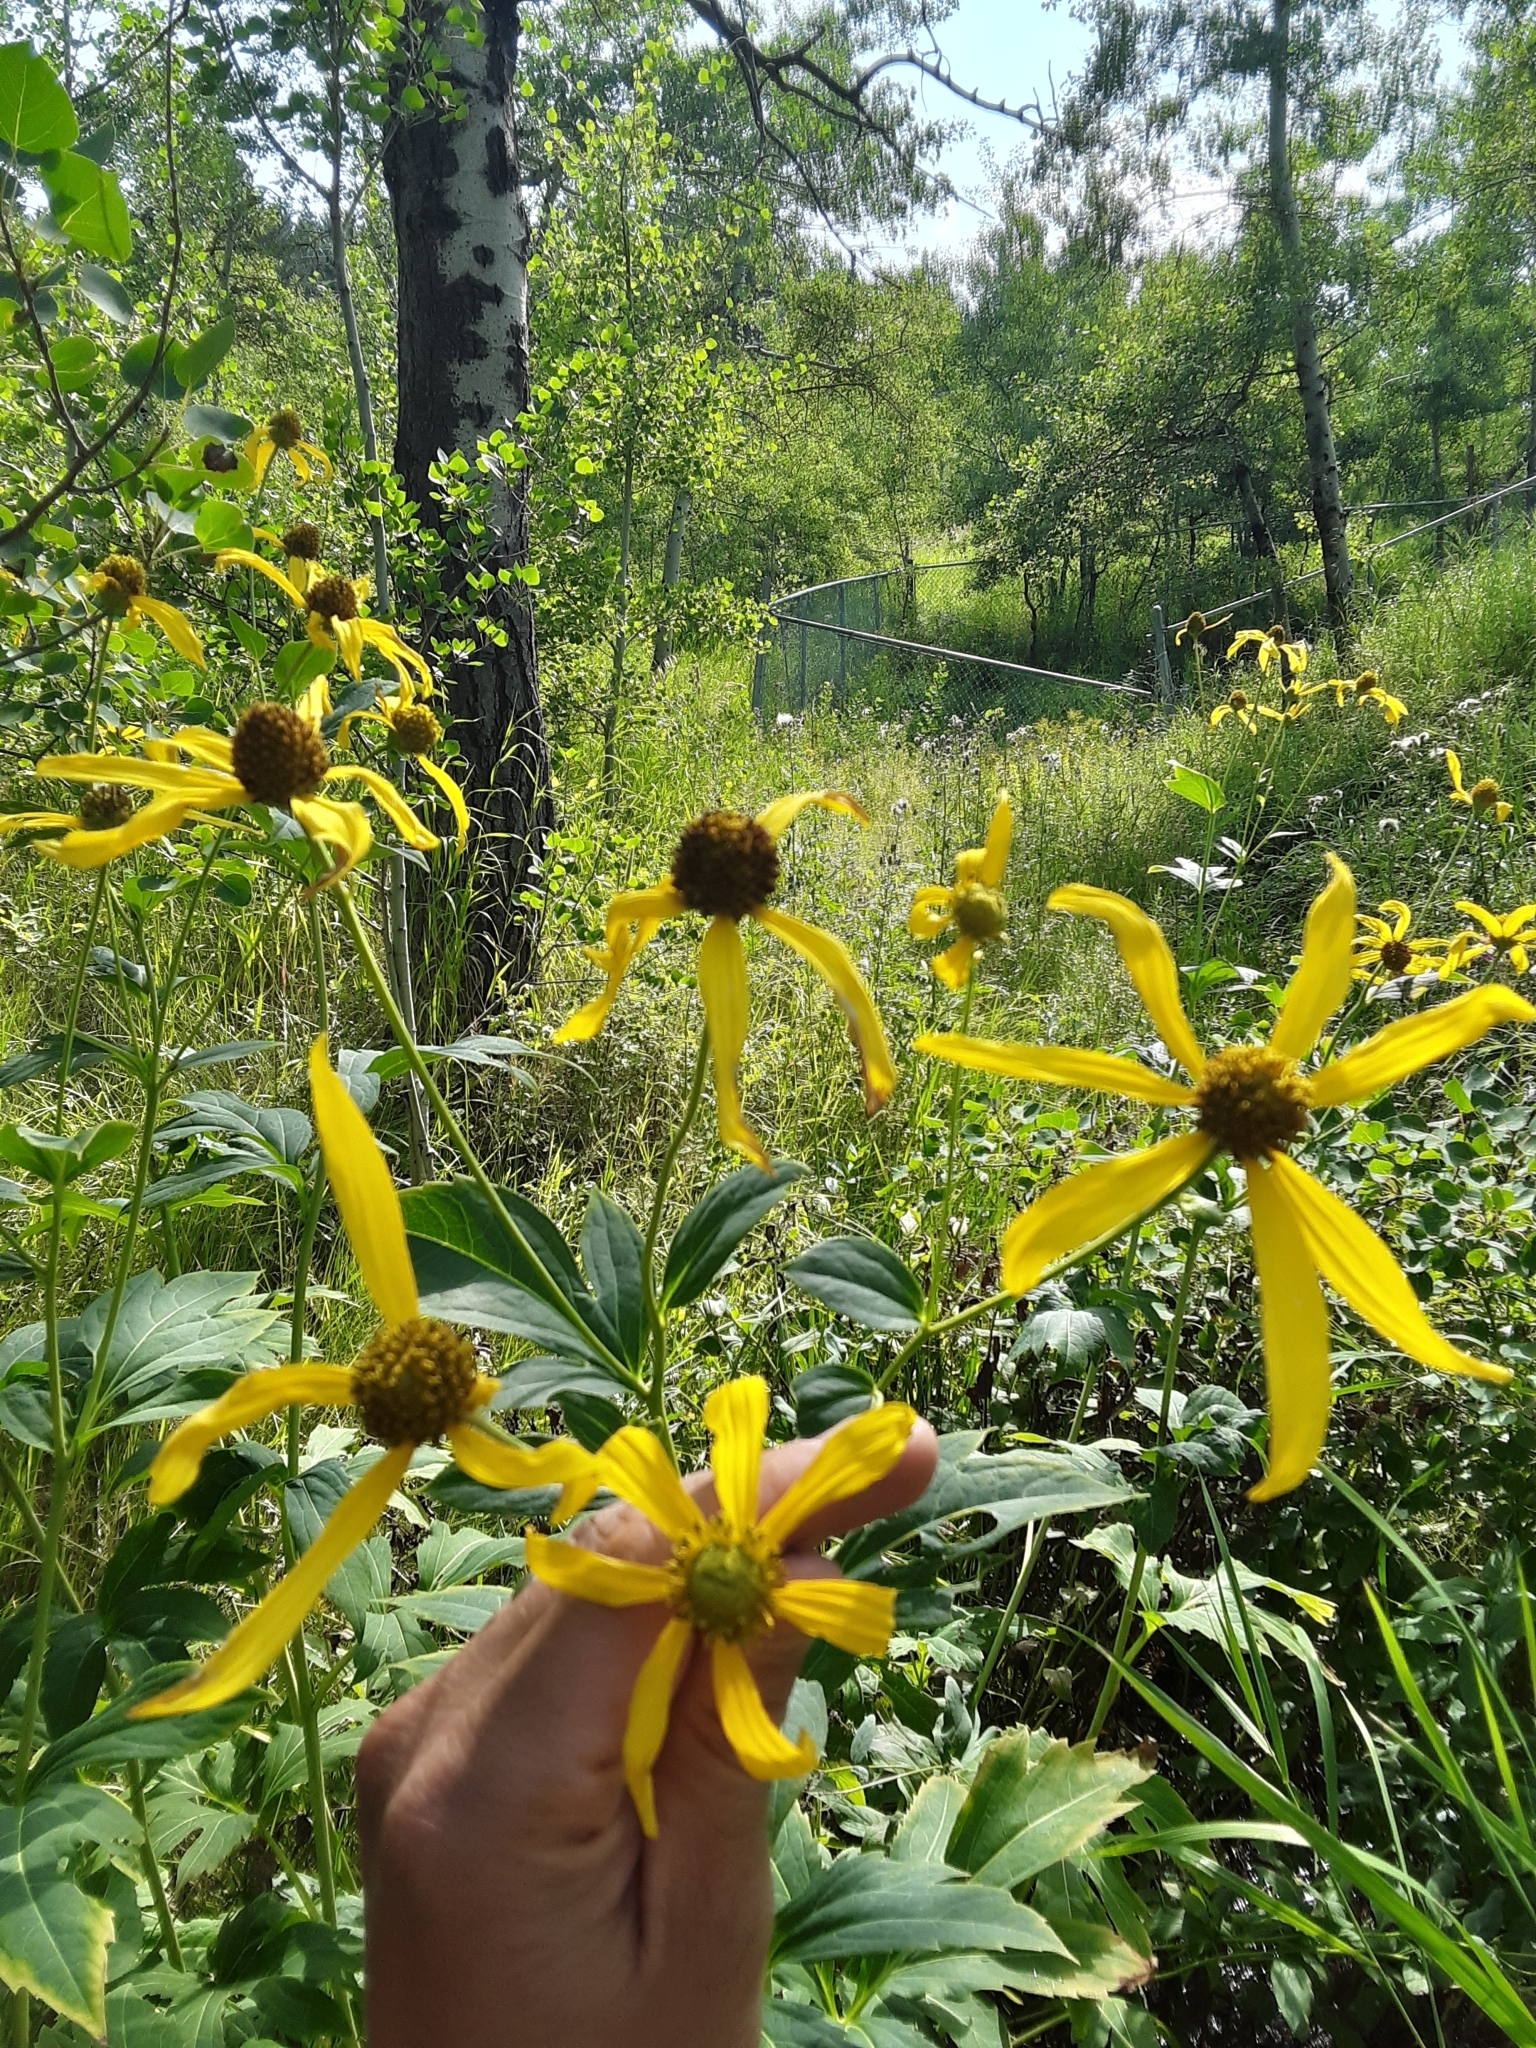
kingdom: Plantae
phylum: Tracheophyta
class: Magnoliopsida
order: Asterales
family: Asteraceae
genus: Rudbeckia
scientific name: Rudbeckia laciniata
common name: Coneflower
